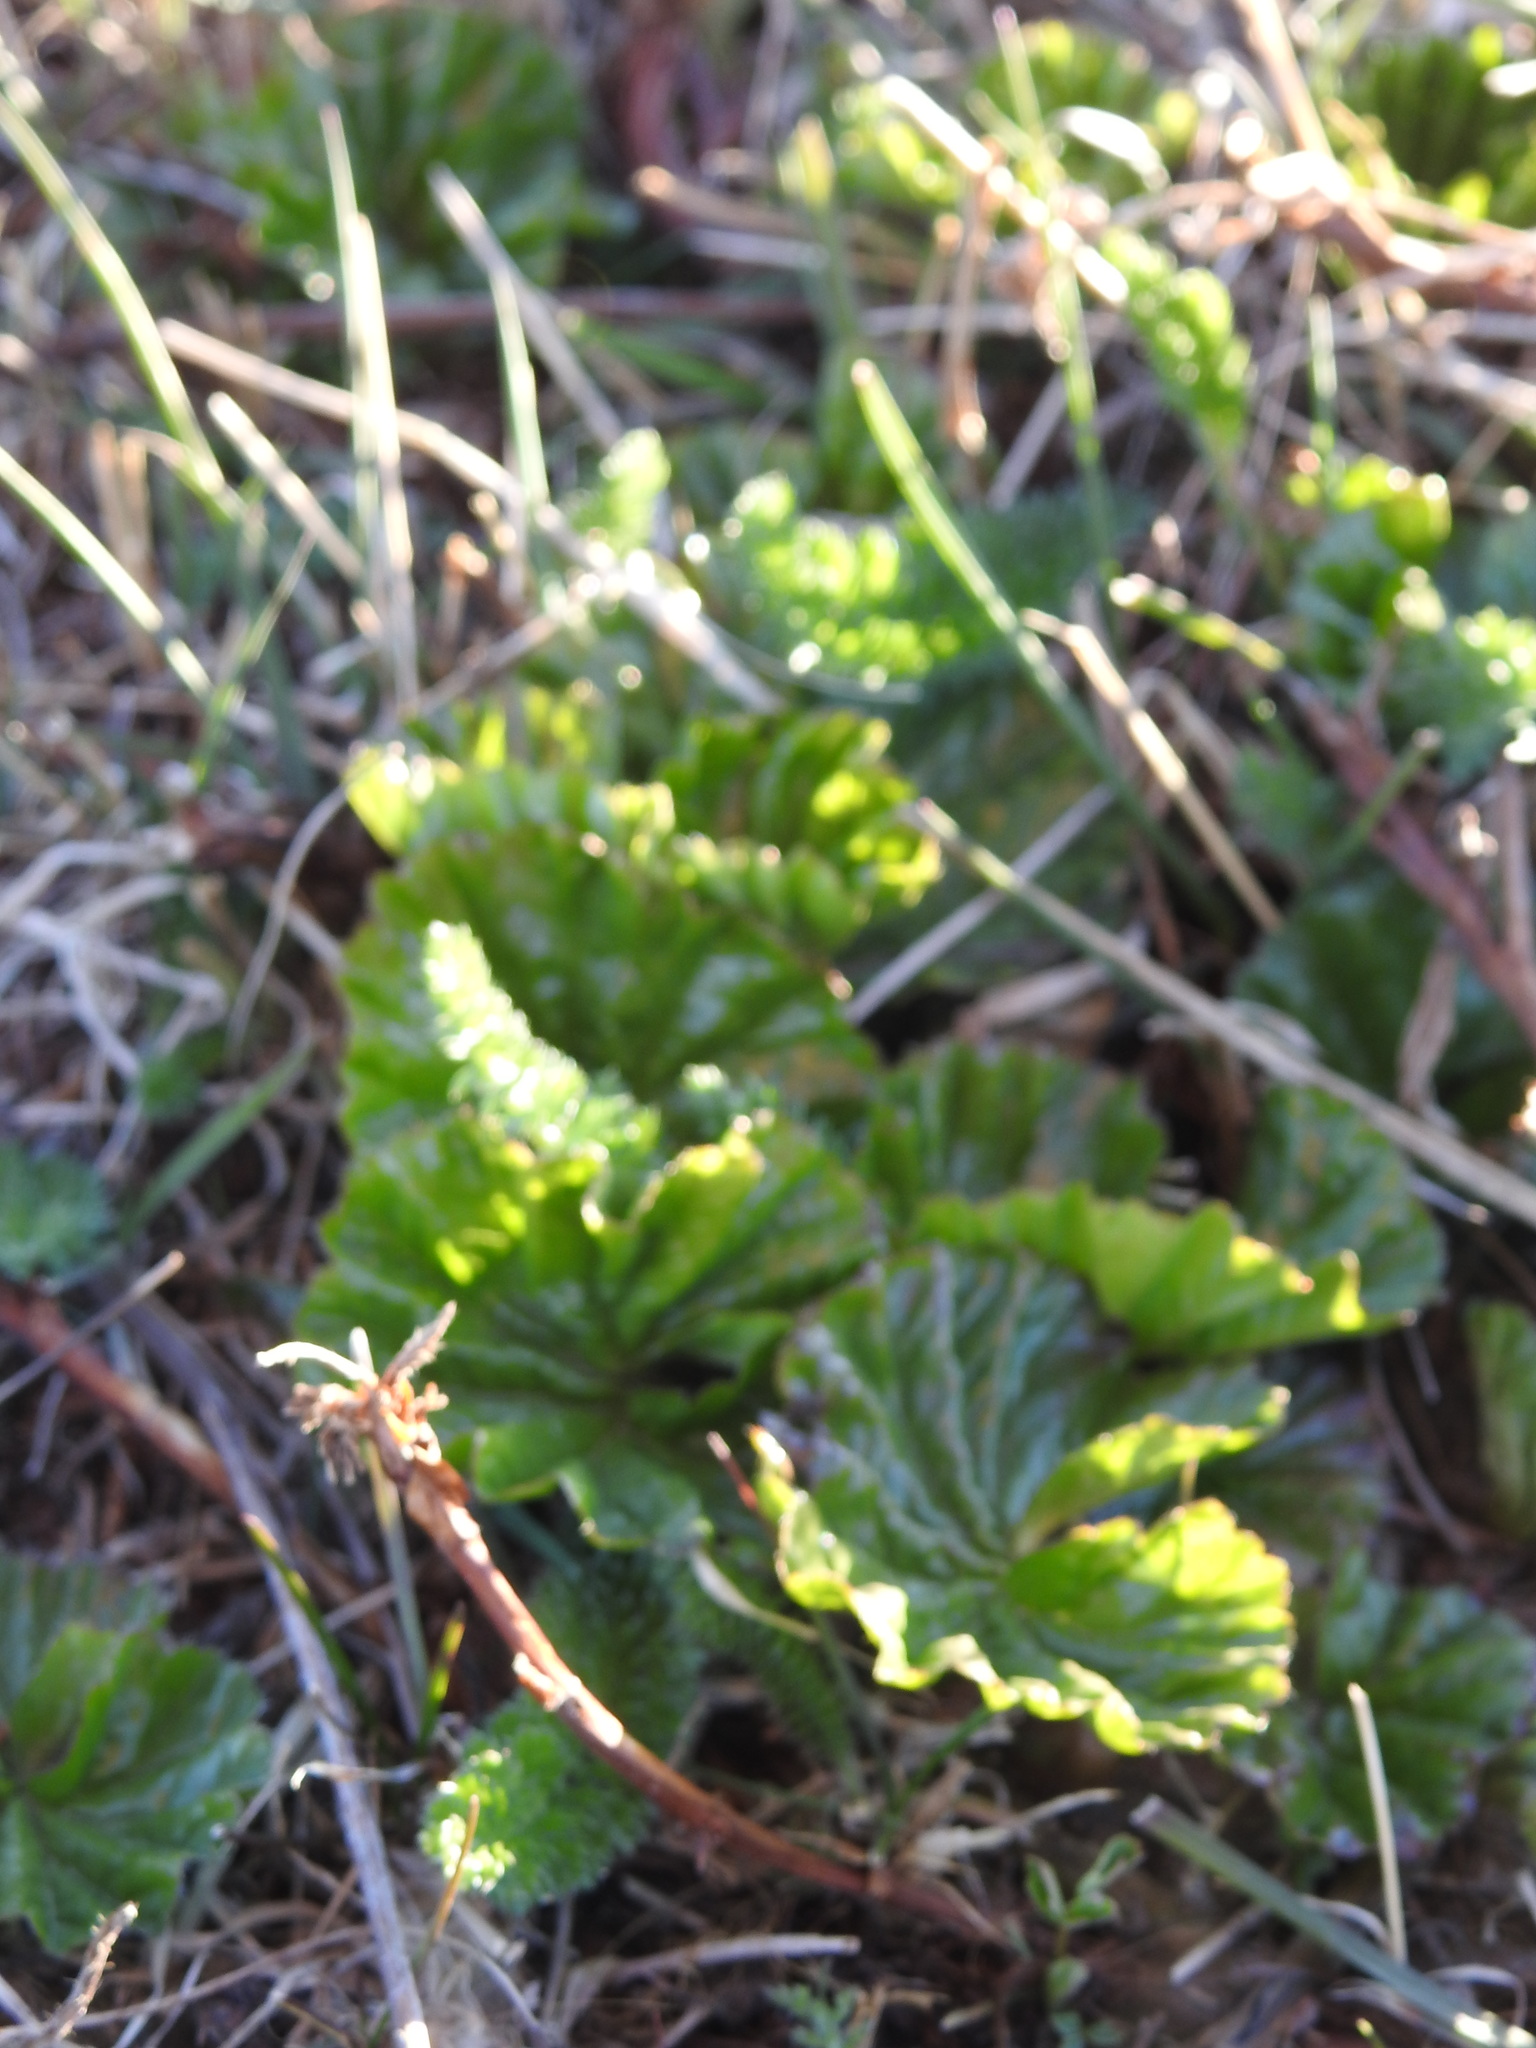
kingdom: Plantae
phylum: Tracheophyta
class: Magnoliopsida
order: Gunnerales
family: Gunneraceae
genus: Gunnera
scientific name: Gunnera magellanica
